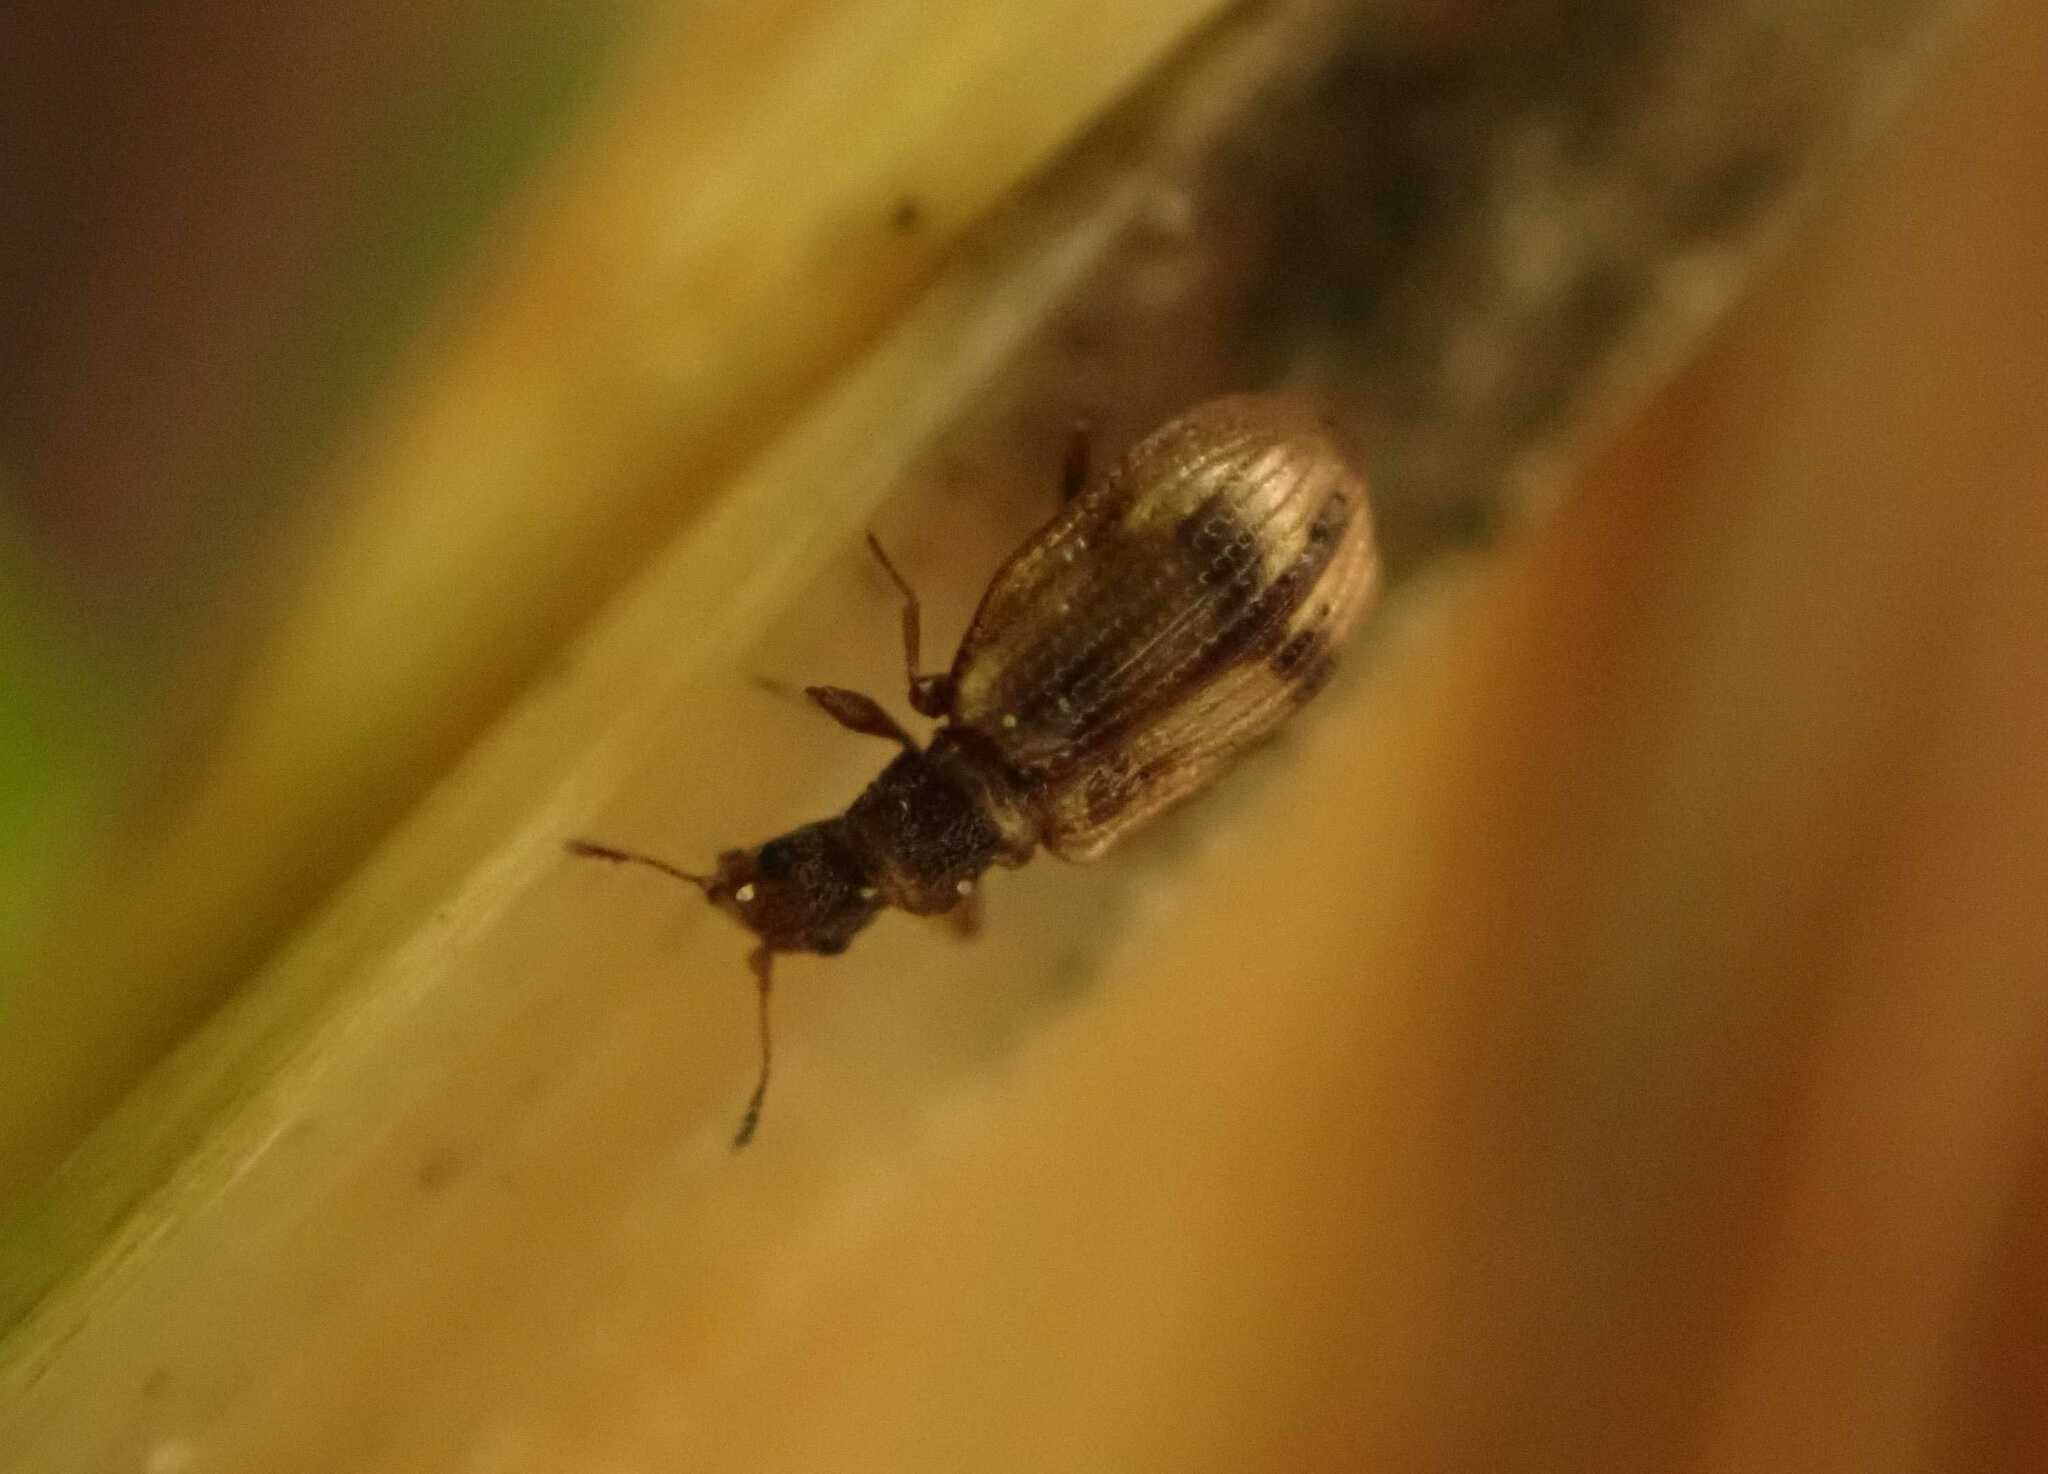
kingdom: Animalia
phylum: Arthropoda
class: Insecta
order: Coleoptera
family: Latridiidae
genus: Cartodere
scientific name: Cartodere bifasciata
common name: Plaster beetle
